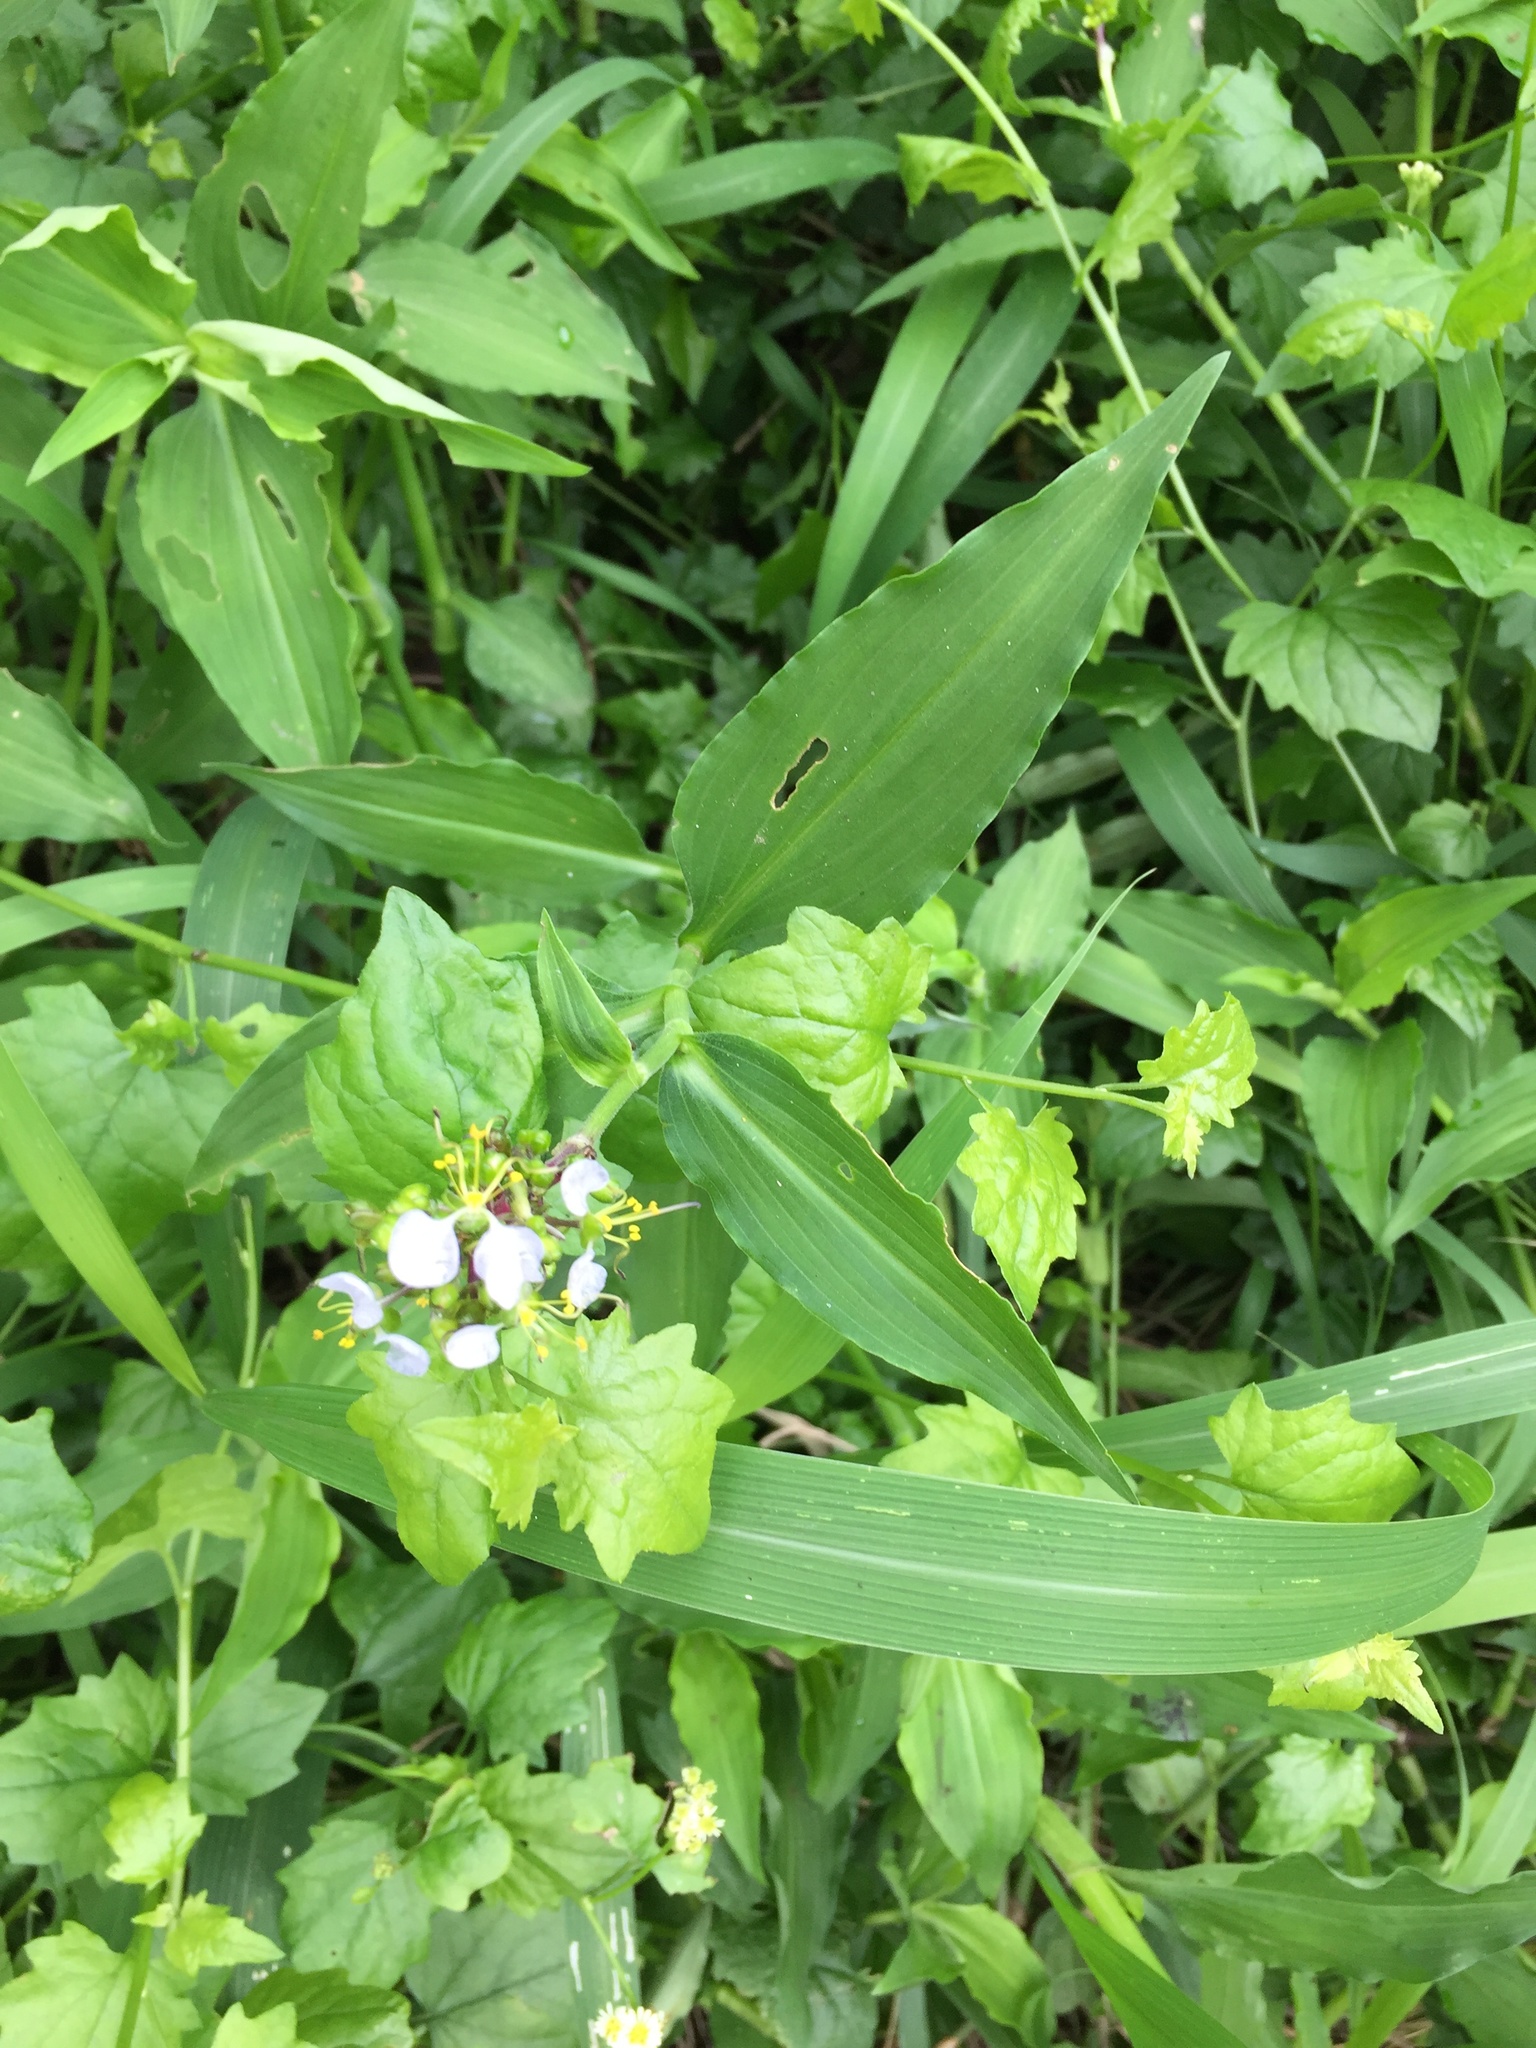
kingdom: Plantae
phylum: Tracheophyta
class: Liliopsida
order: Commelinales
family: Commelinaceae
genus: Aneilema
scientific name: Aneilema dregeanum
